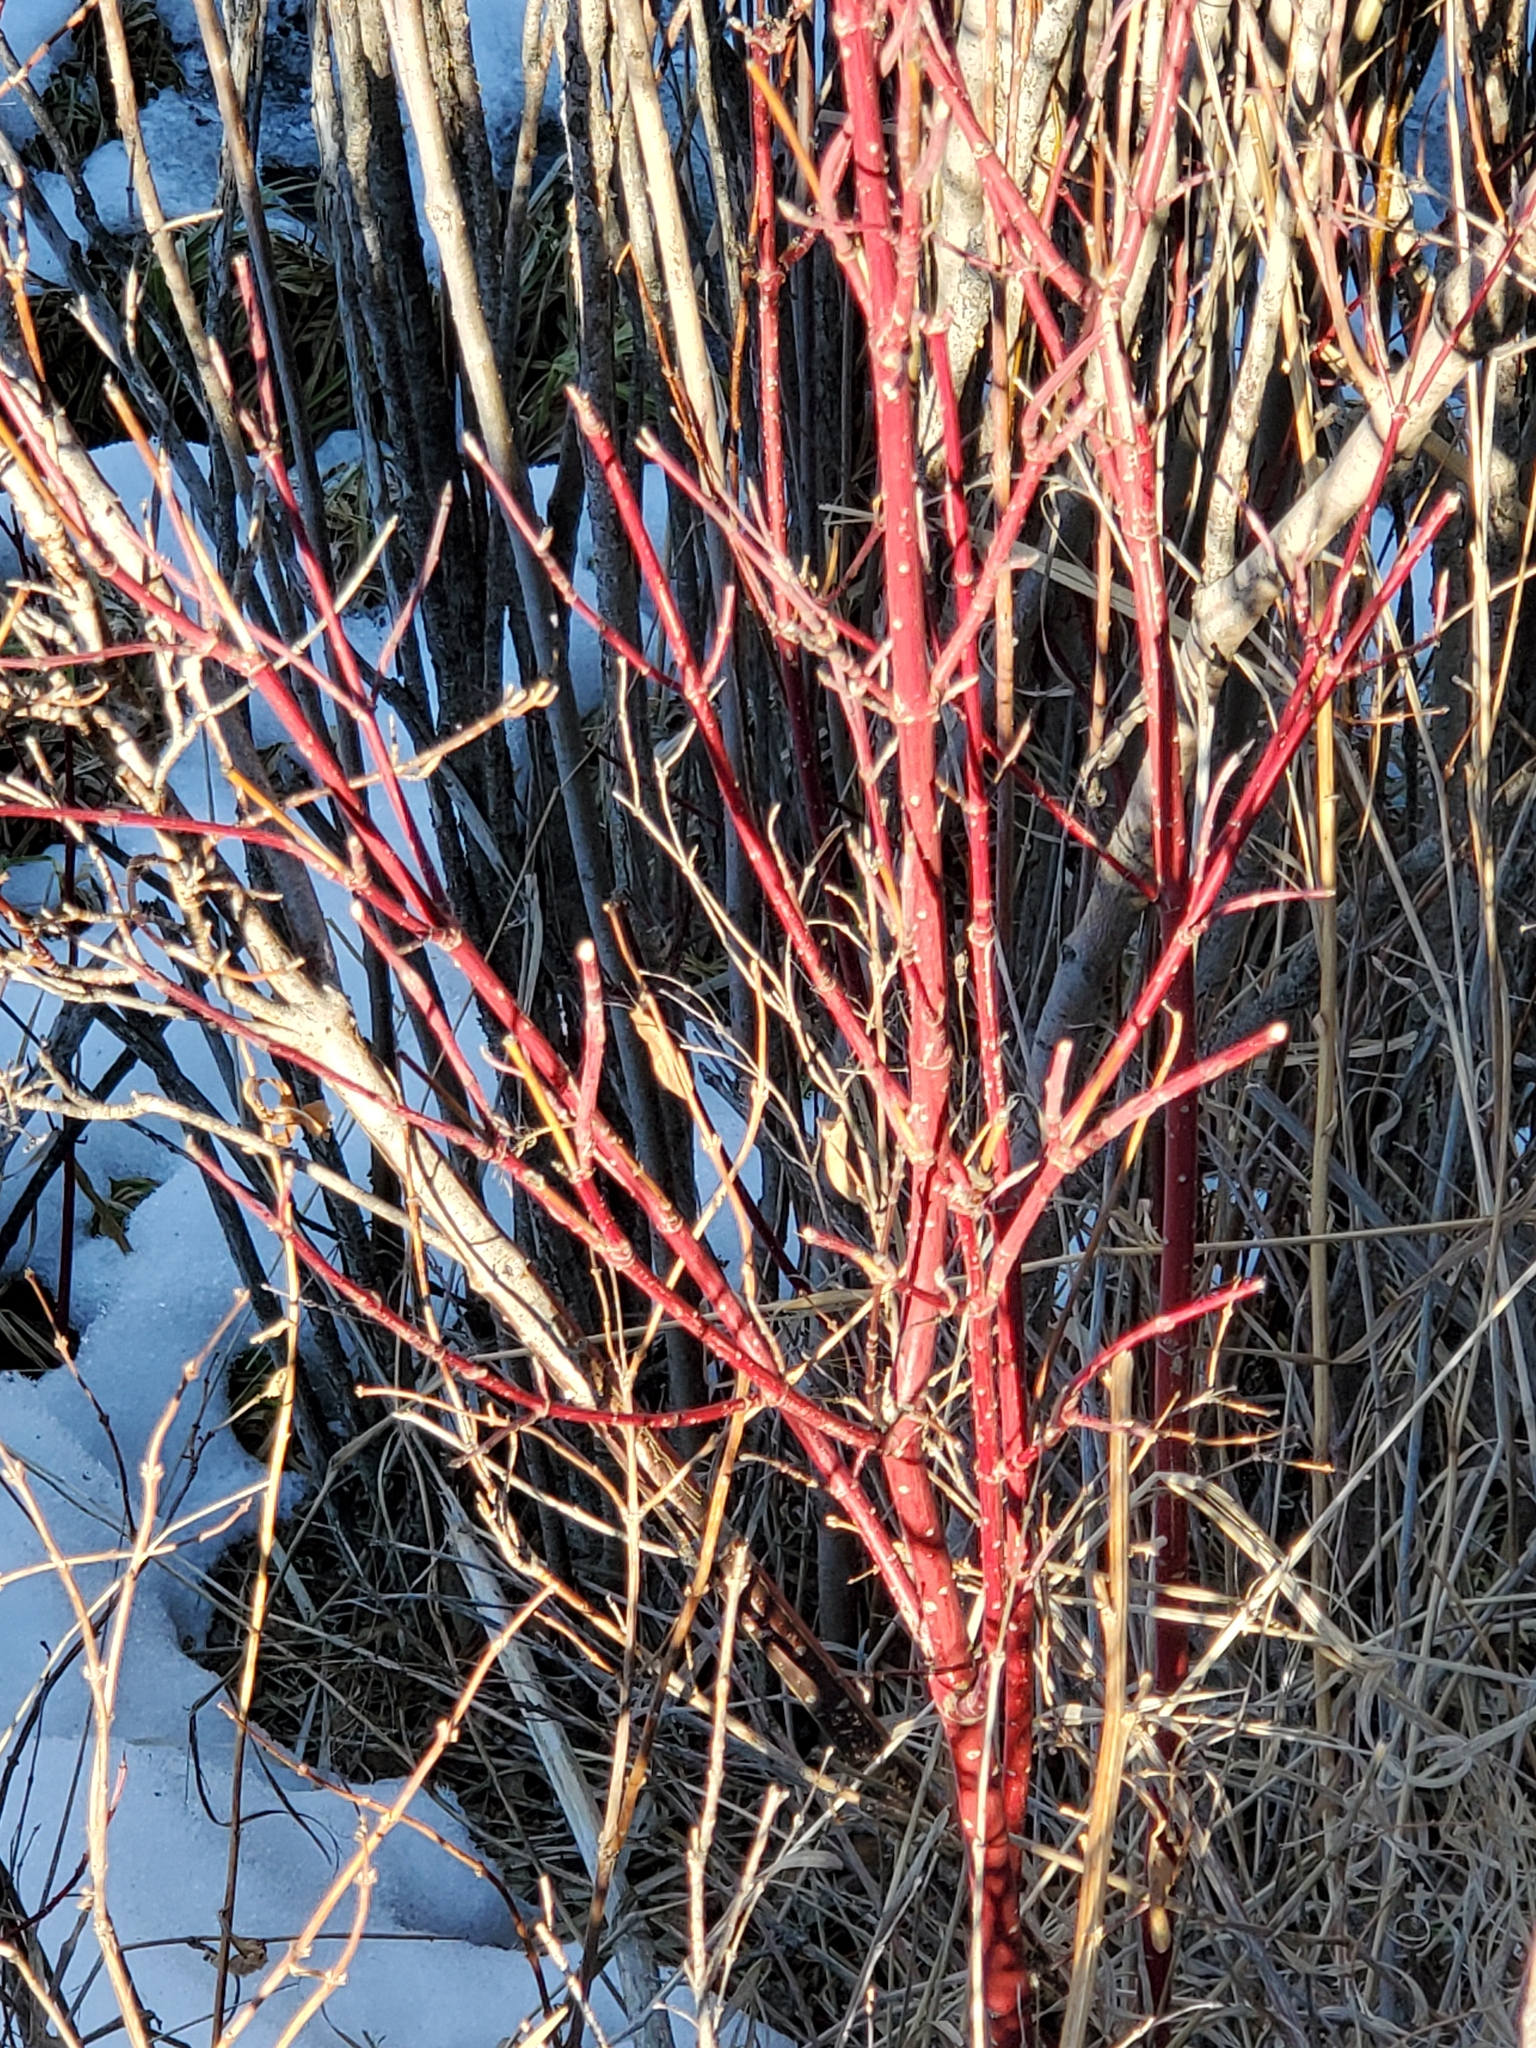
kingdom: Plantae
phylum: Tracheophyta
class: Magnoliopsida
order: Cornales
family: Cornaceae
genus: Cornus
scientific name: Cornus sericea
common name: Red-osier dogwood
